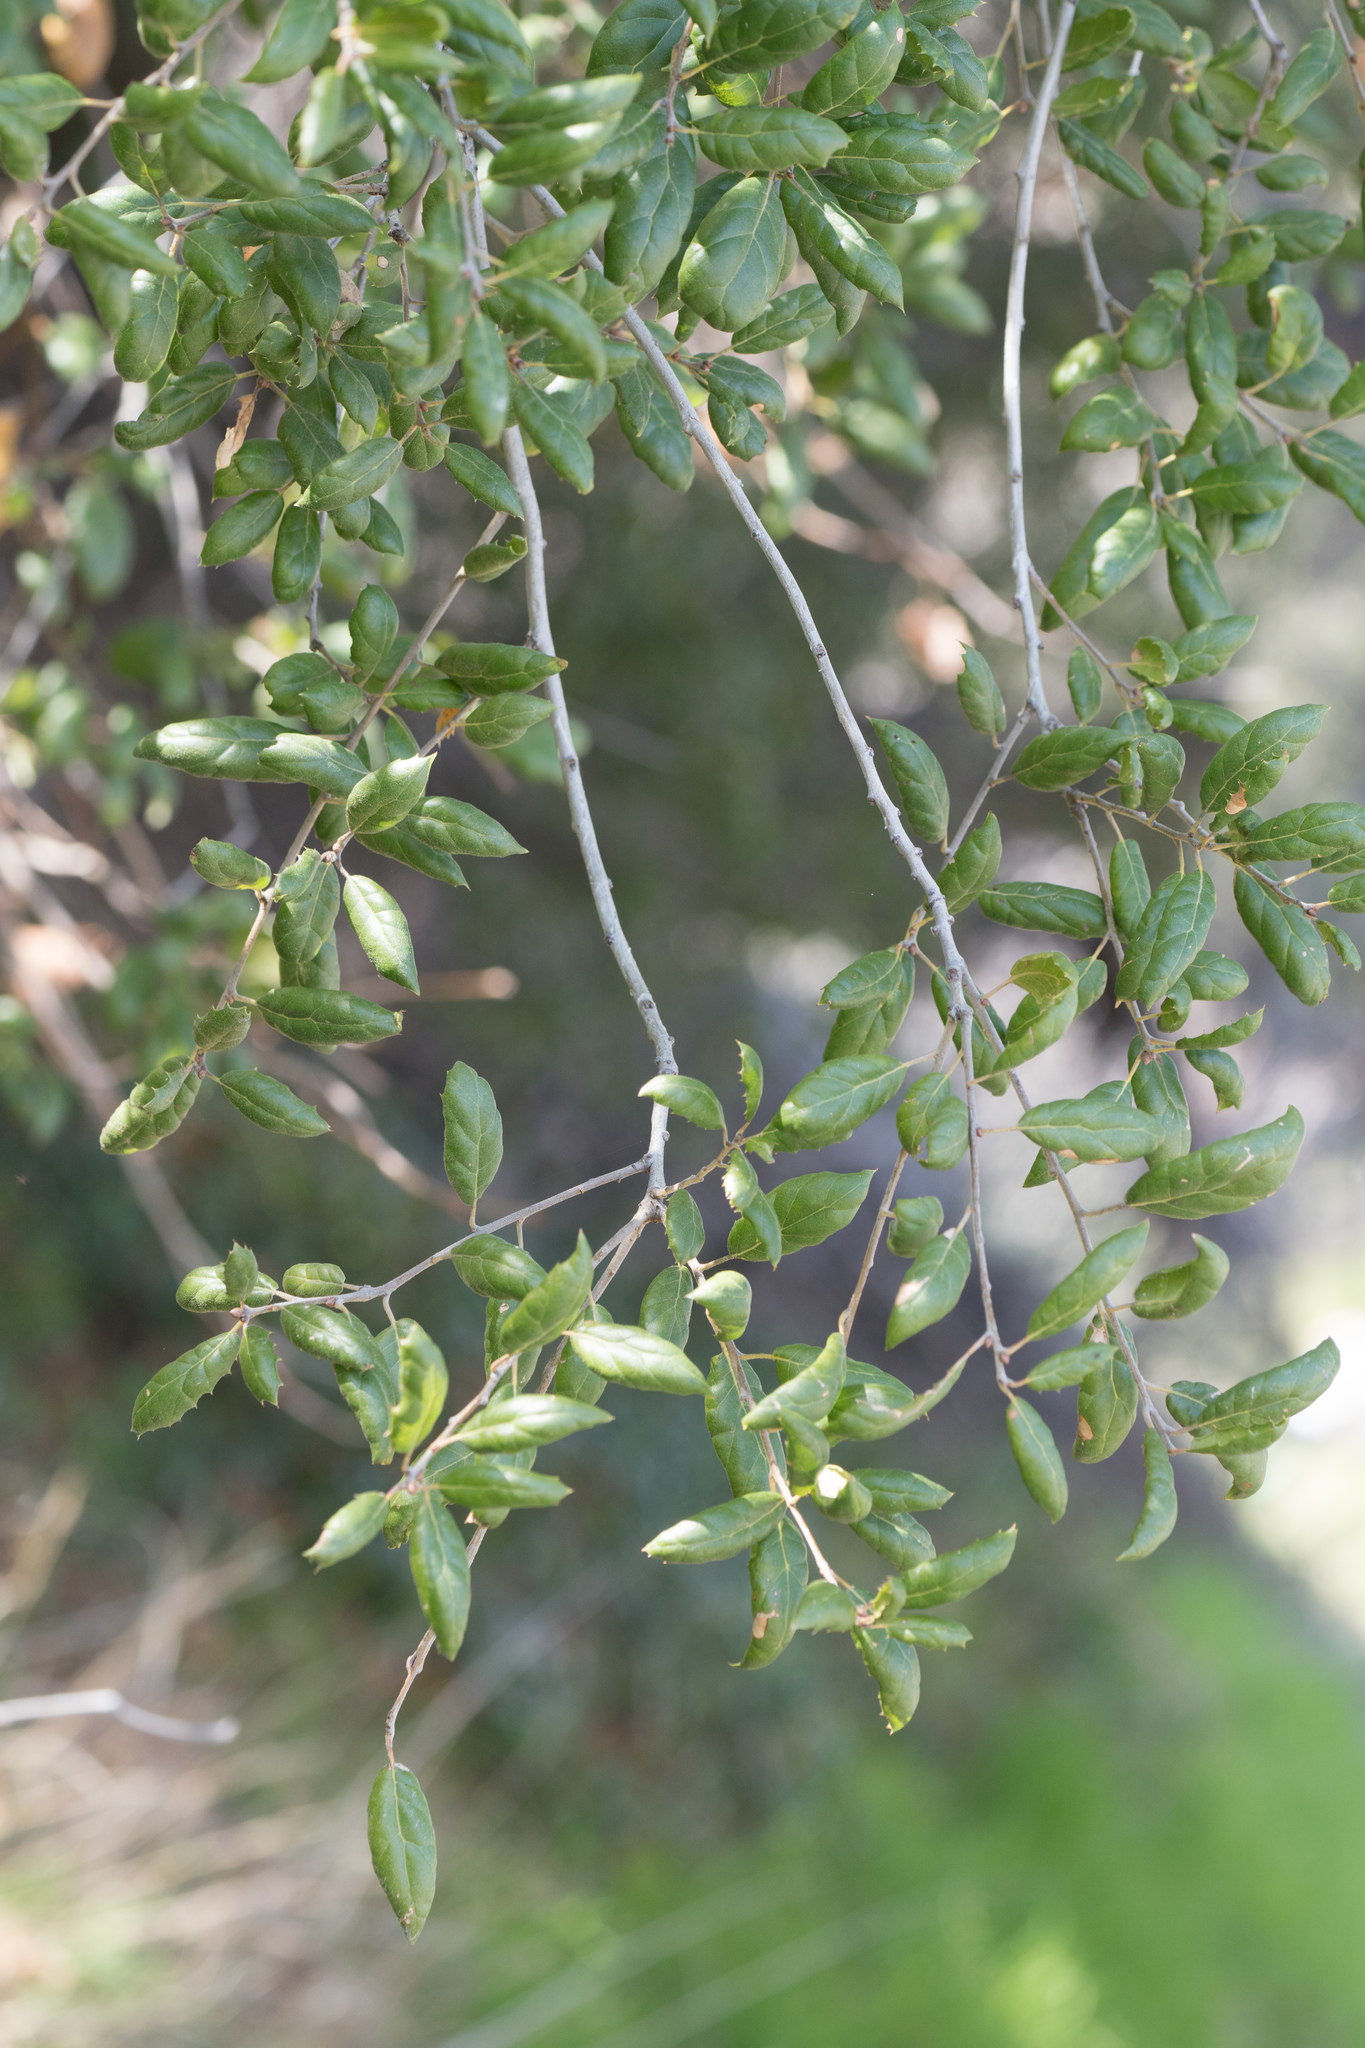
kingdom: Plantae
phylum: Tracheophyta
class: Magnoliopsida
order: Fagales
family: Fagaceae
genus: Quercus
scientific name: Quercus agrifolia
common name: California live oak
